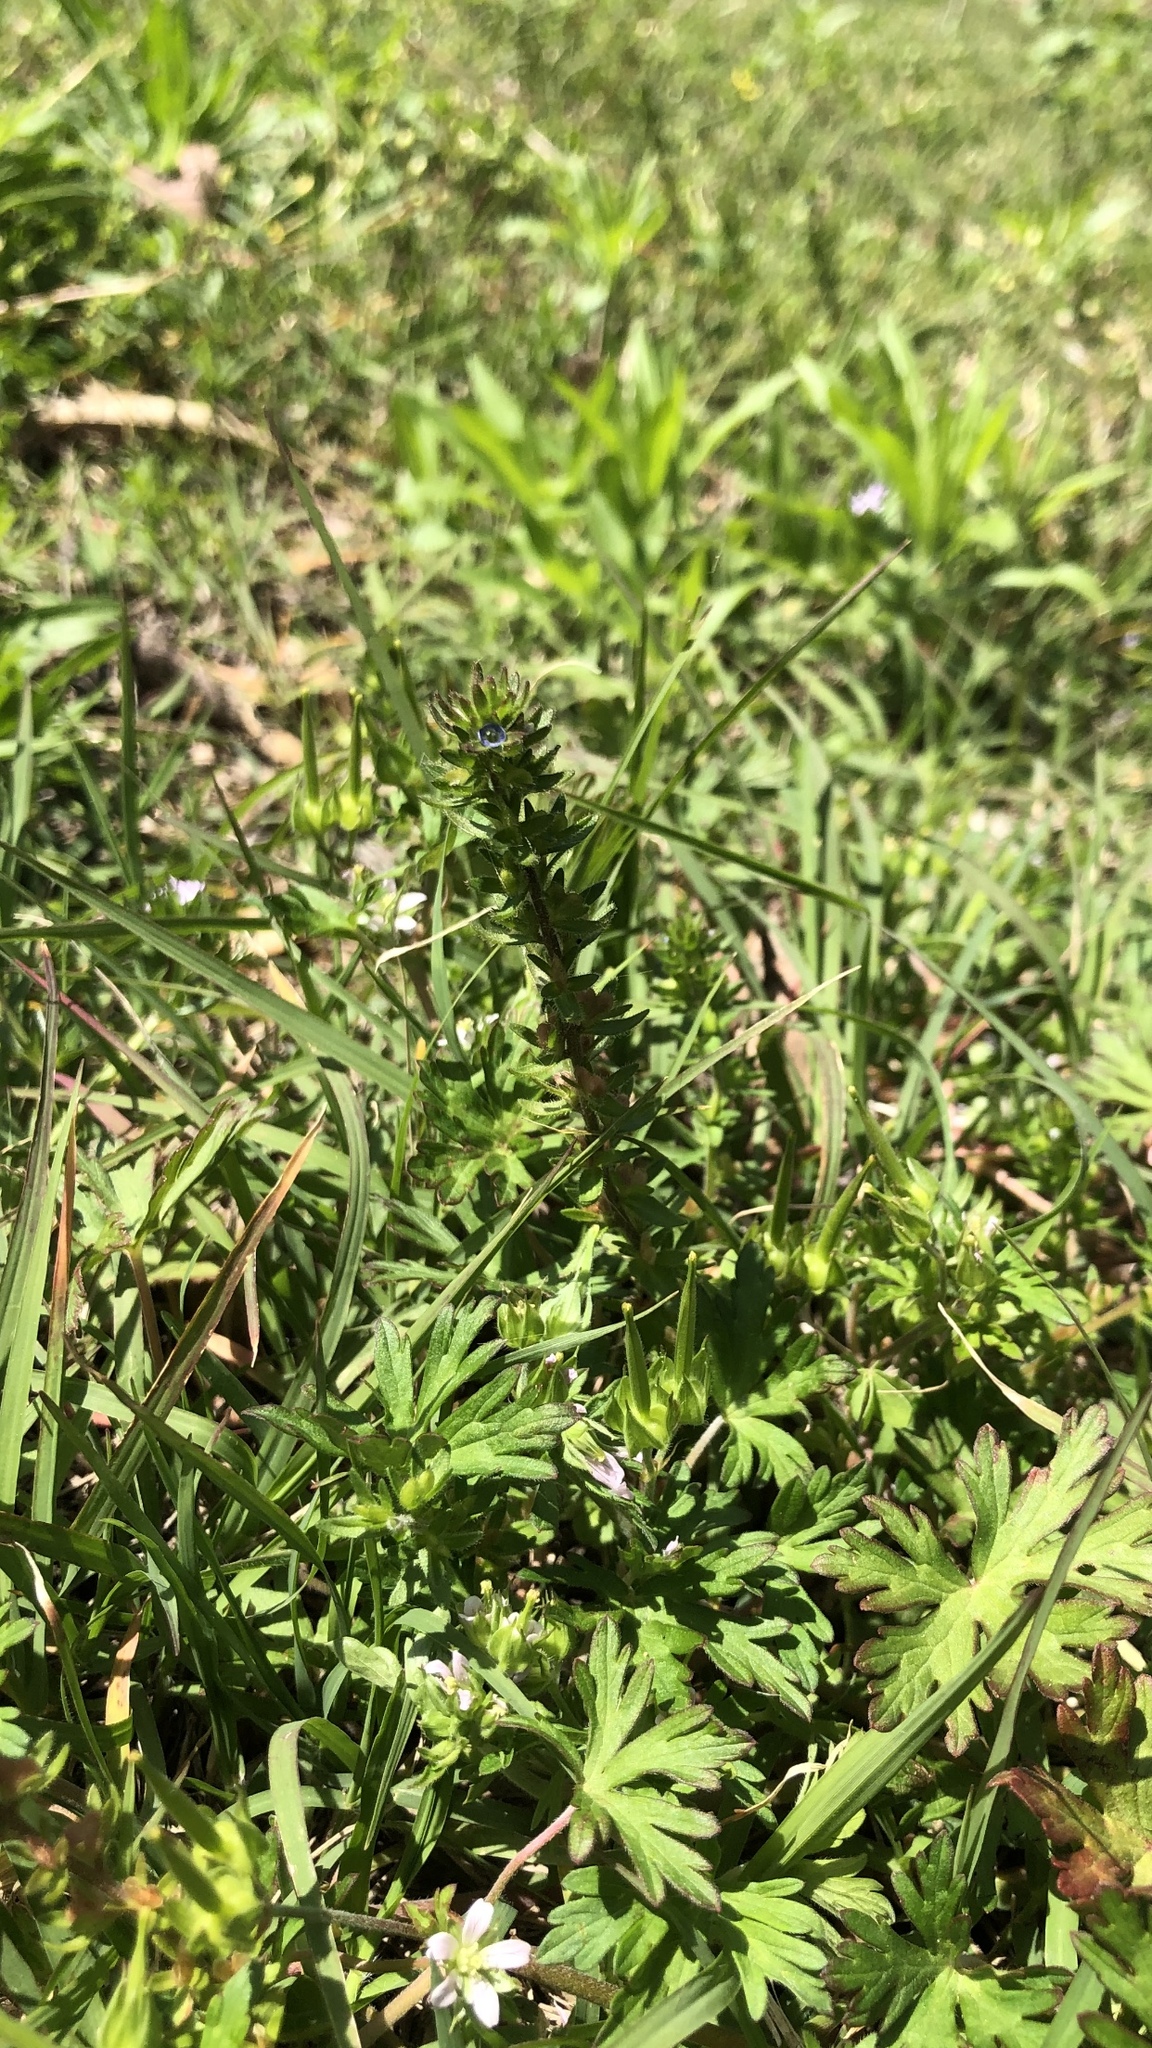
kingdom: Plantae
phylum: Tracheophyta
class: Magnoliopsida
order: Lamiales
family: Plantaginaceae
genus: Veronica
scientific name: Veronica arvensis
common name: Corn speedwell
